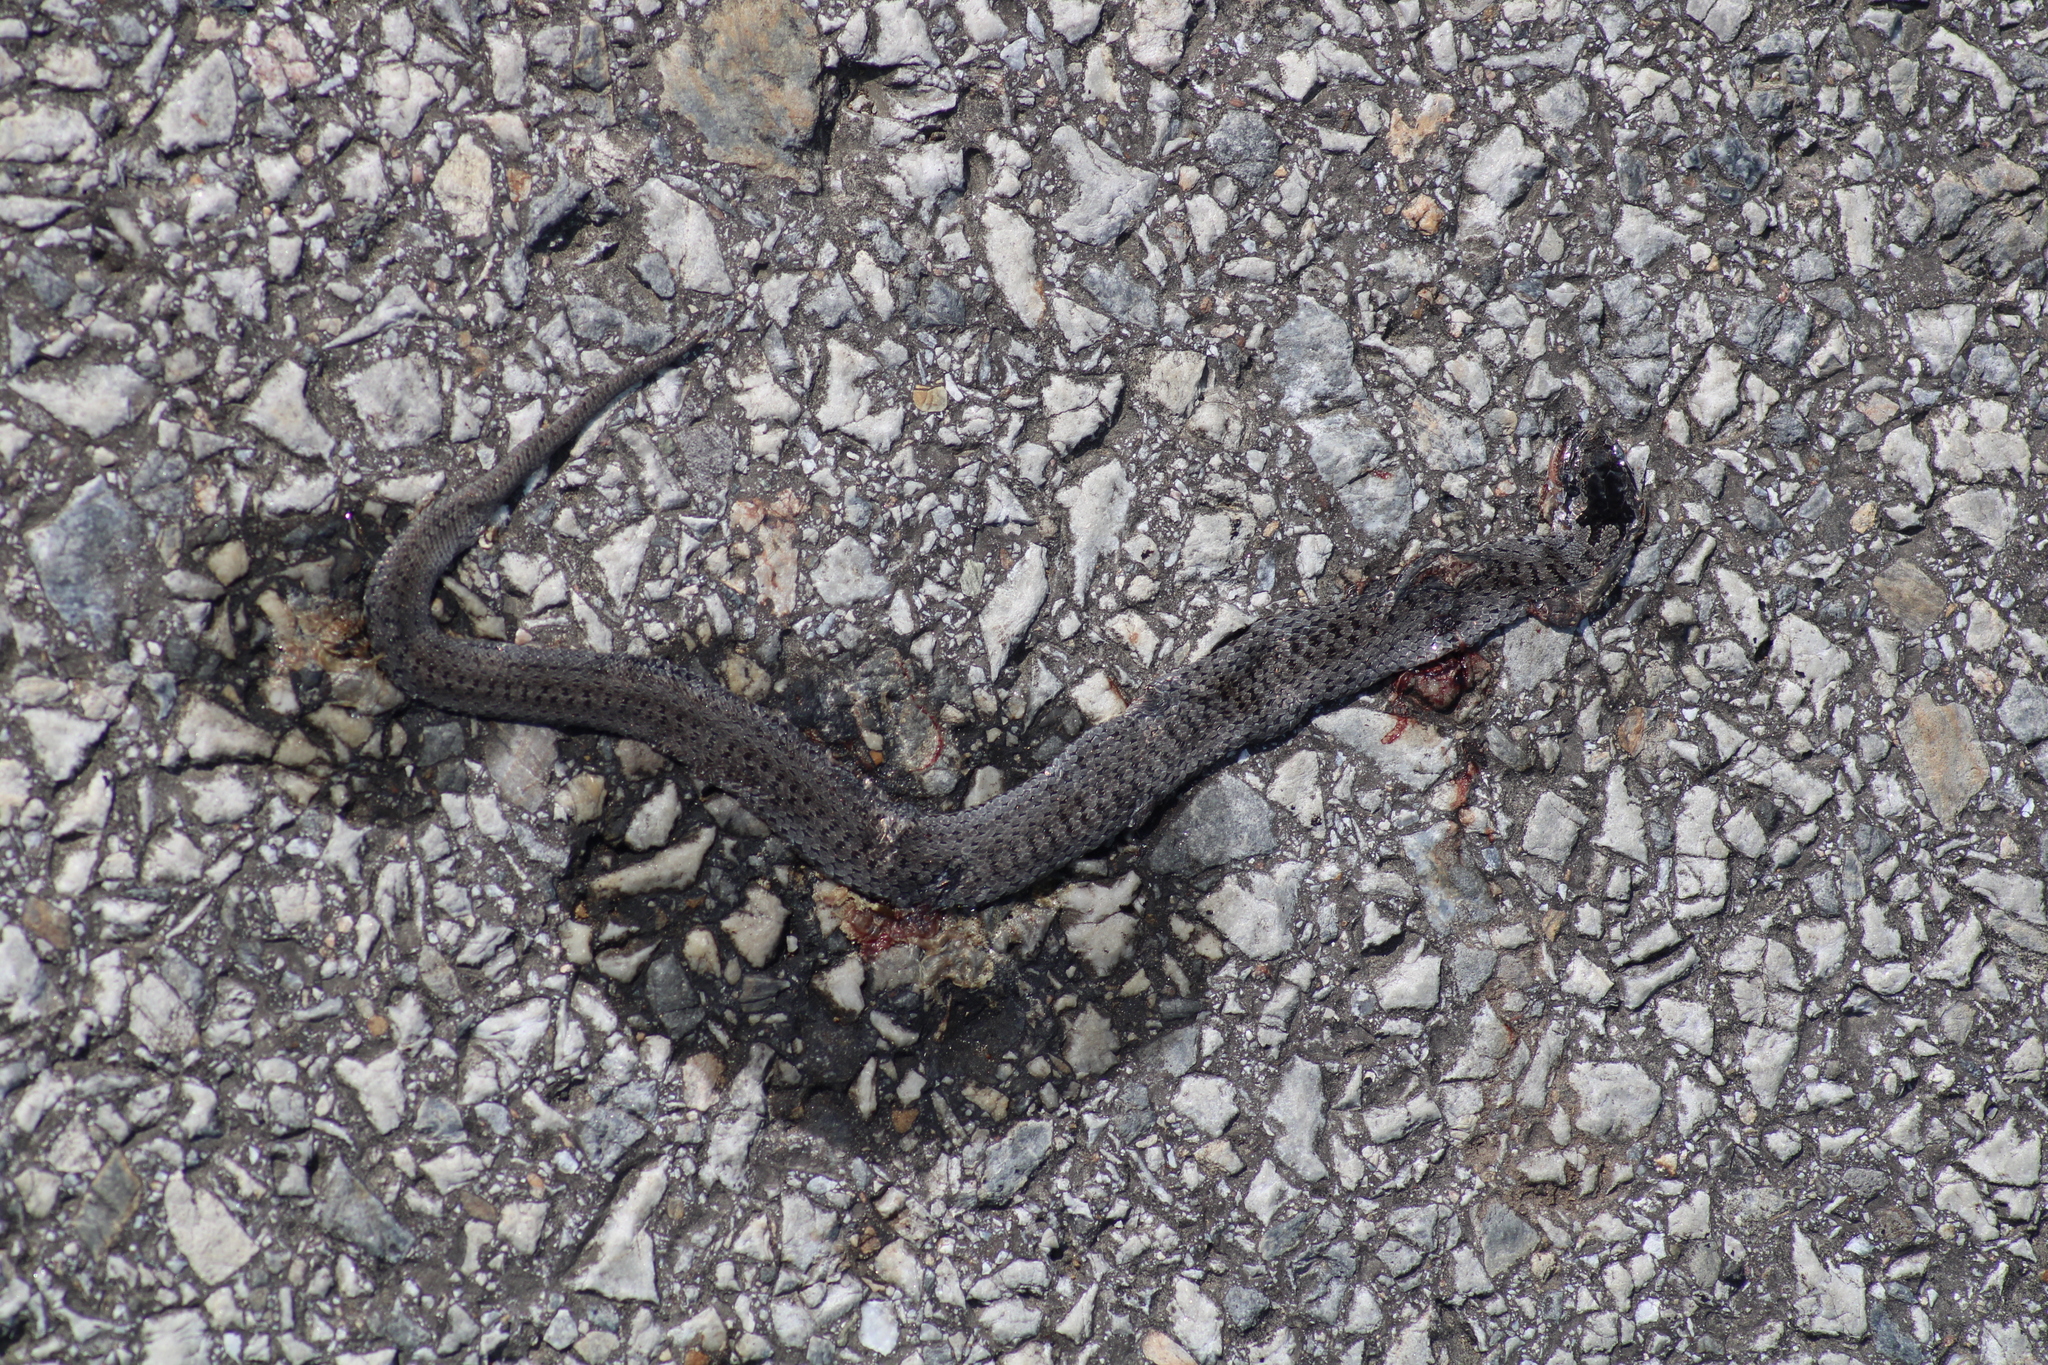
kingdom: Animalia
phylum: Chordata
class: Squamata
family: Colubridae
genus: Coronella
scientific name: Coronella austriaca
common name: Smooth snake
